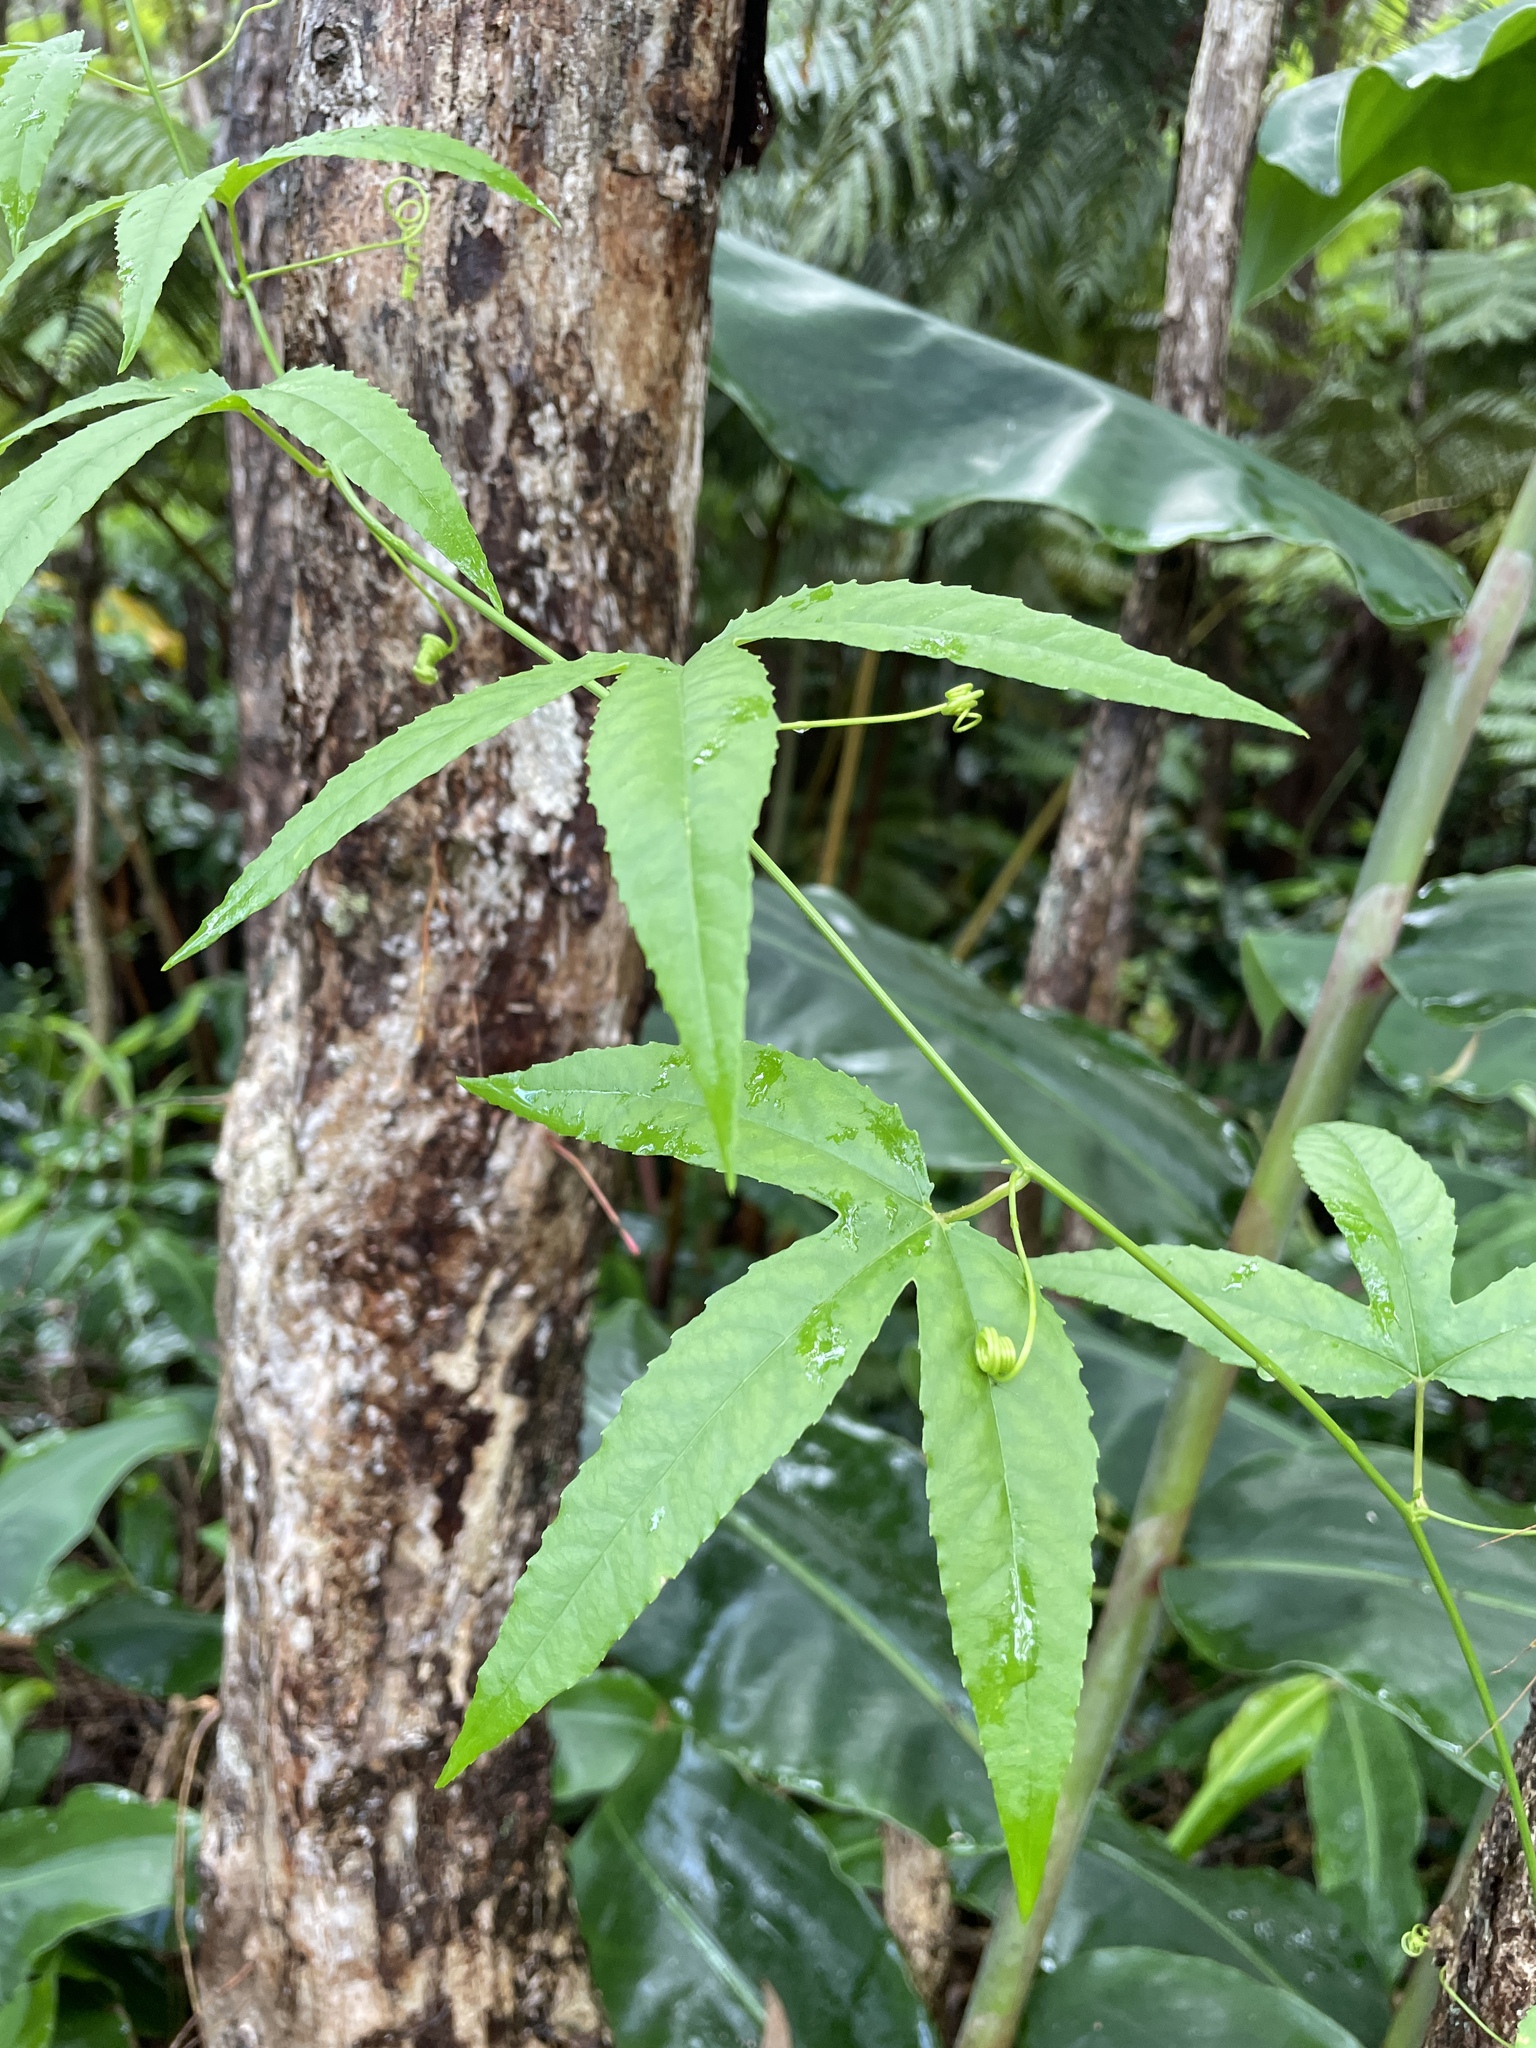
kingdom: Plantae
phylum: Tracheophyta
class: Magnoliopsida
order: Malpighiales
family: Passifloraceae
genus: Passiflora
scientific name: Passiflora tarminiana
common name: Banana poka
